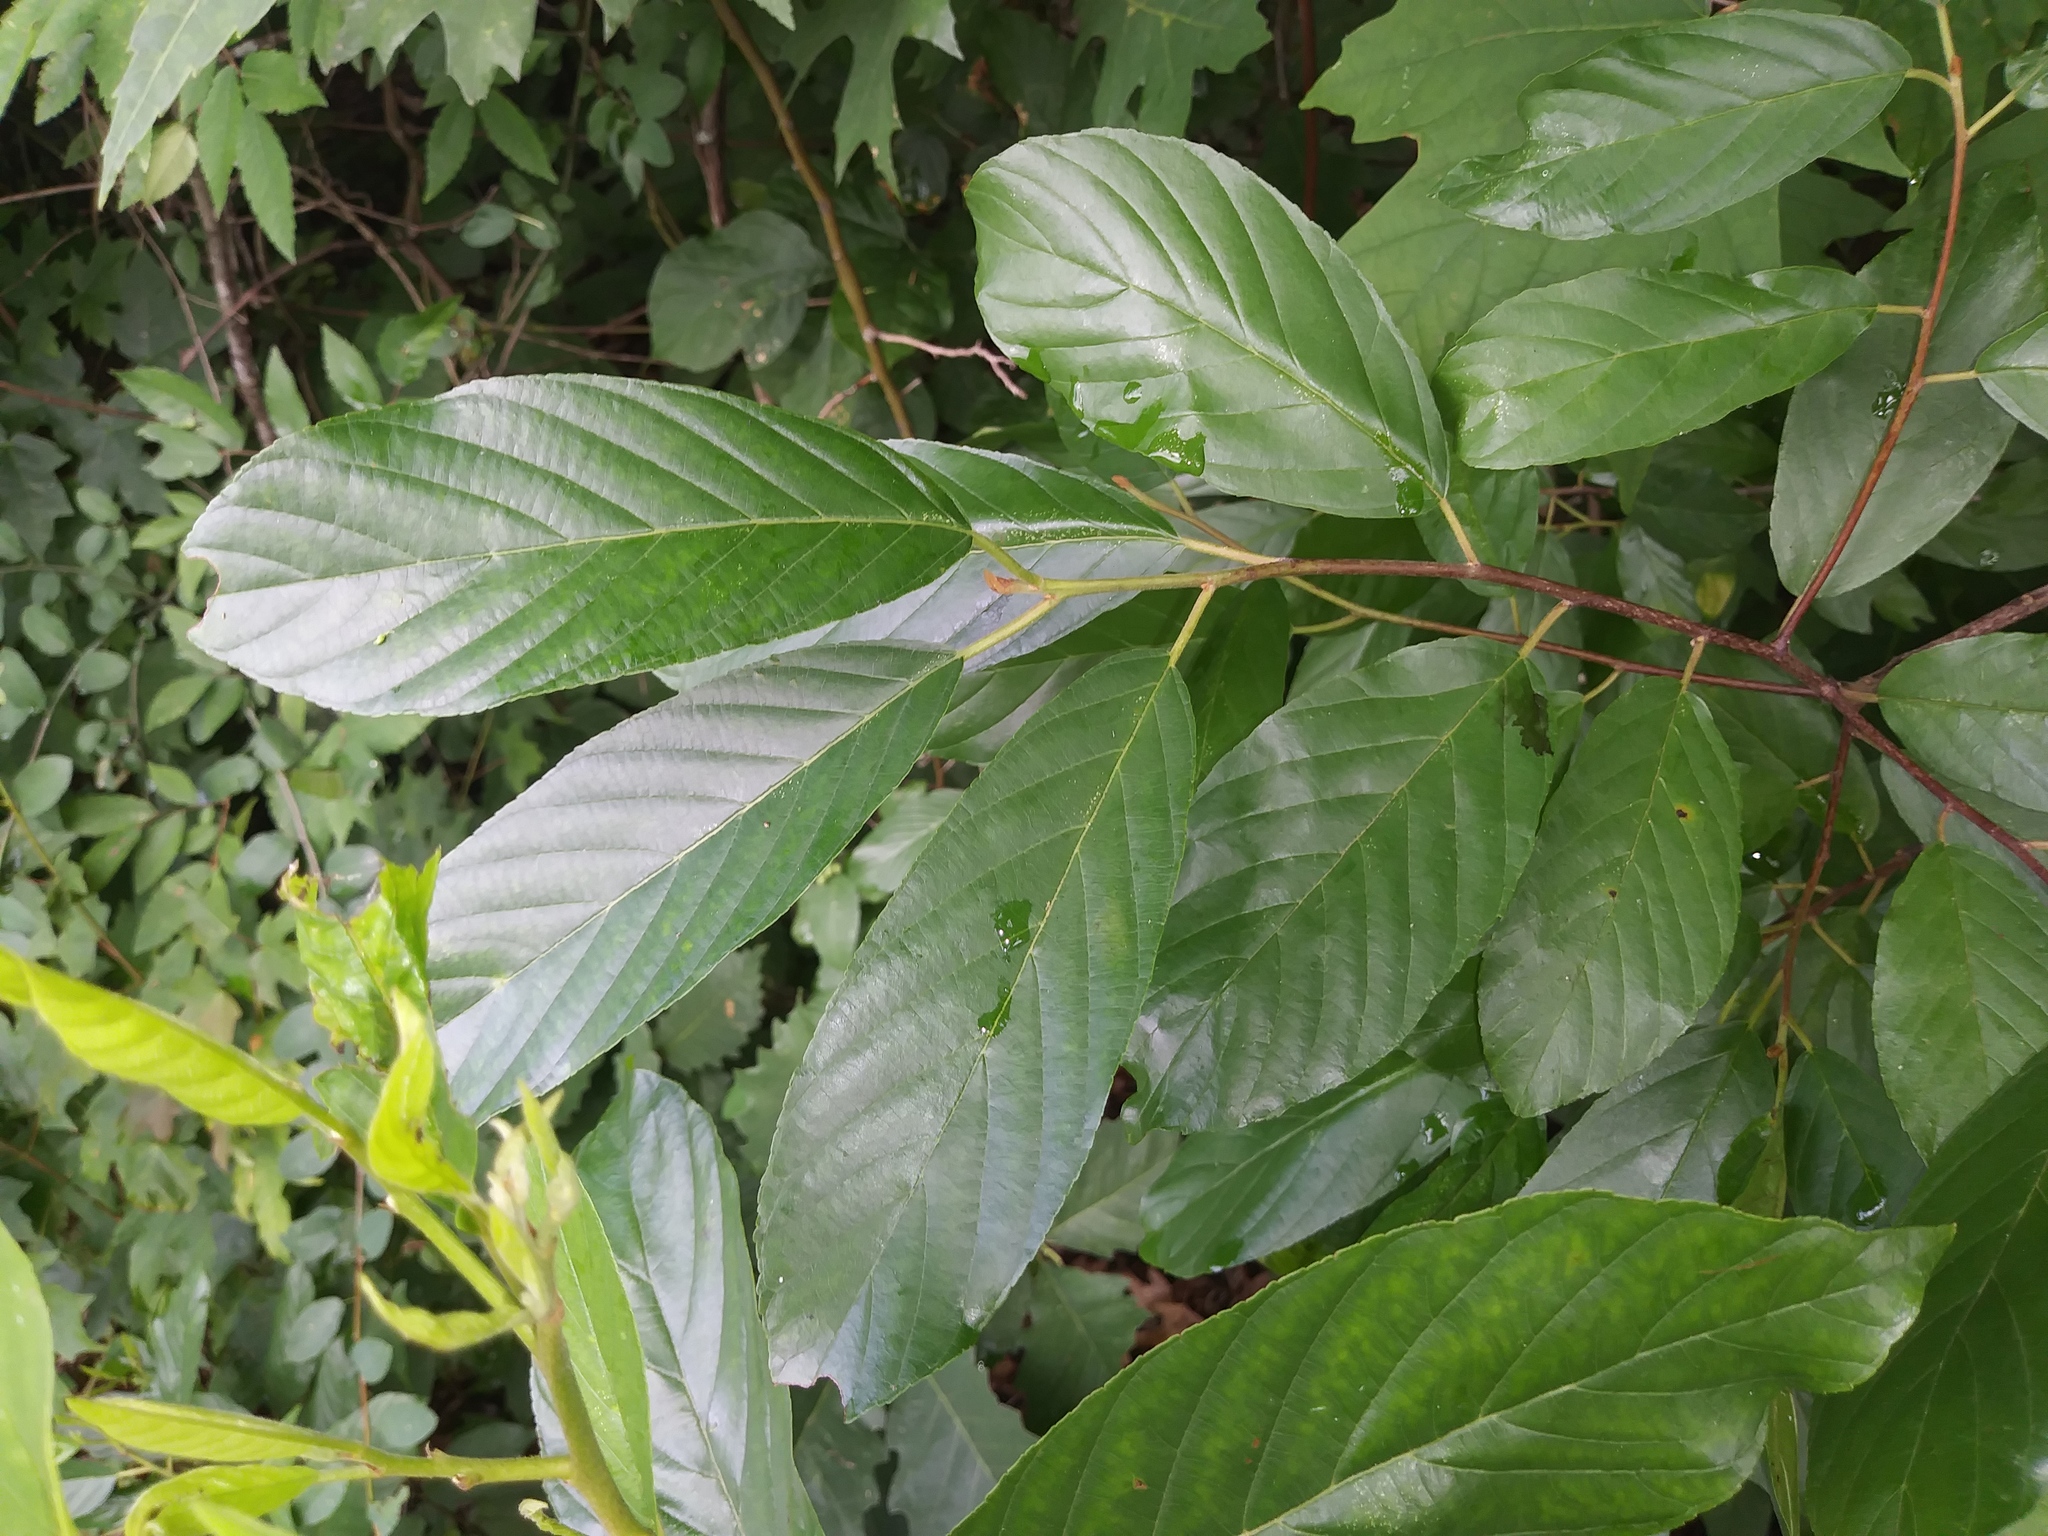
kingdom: Plantae
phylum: Tracheophyta
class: Magnoliopsida
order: Rosales
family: Rhamnaceae
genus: Frangula
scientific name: Frangula caroliniana
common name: Carolina buckthorn
